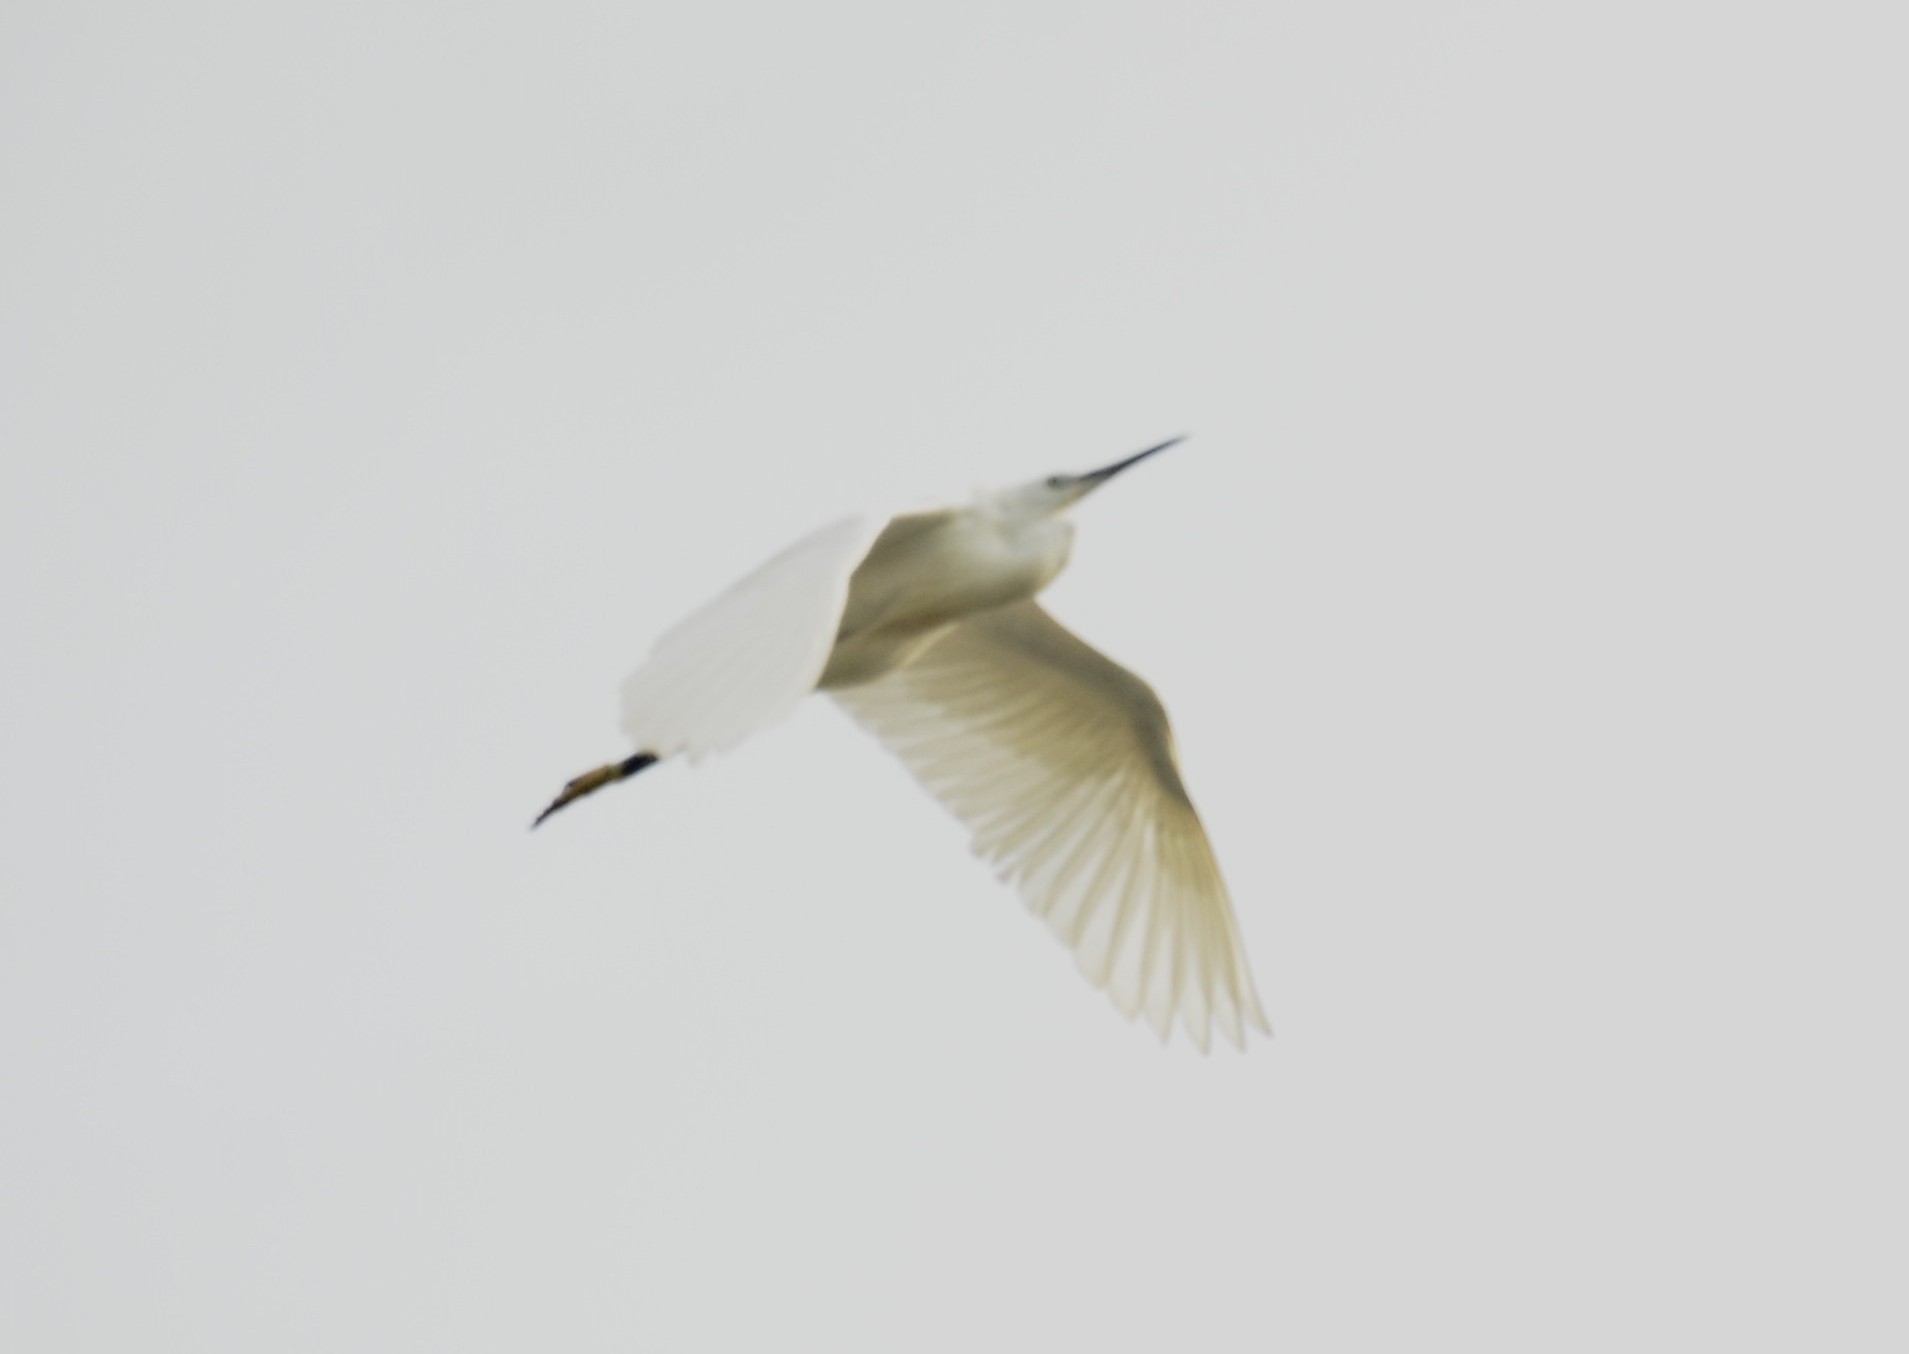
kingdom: Animalia
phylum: Chordata
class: Aves
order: Pelecaniformes
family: Ardeidae
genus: Egretta
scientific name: Egretta garzetta
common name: Little egret
